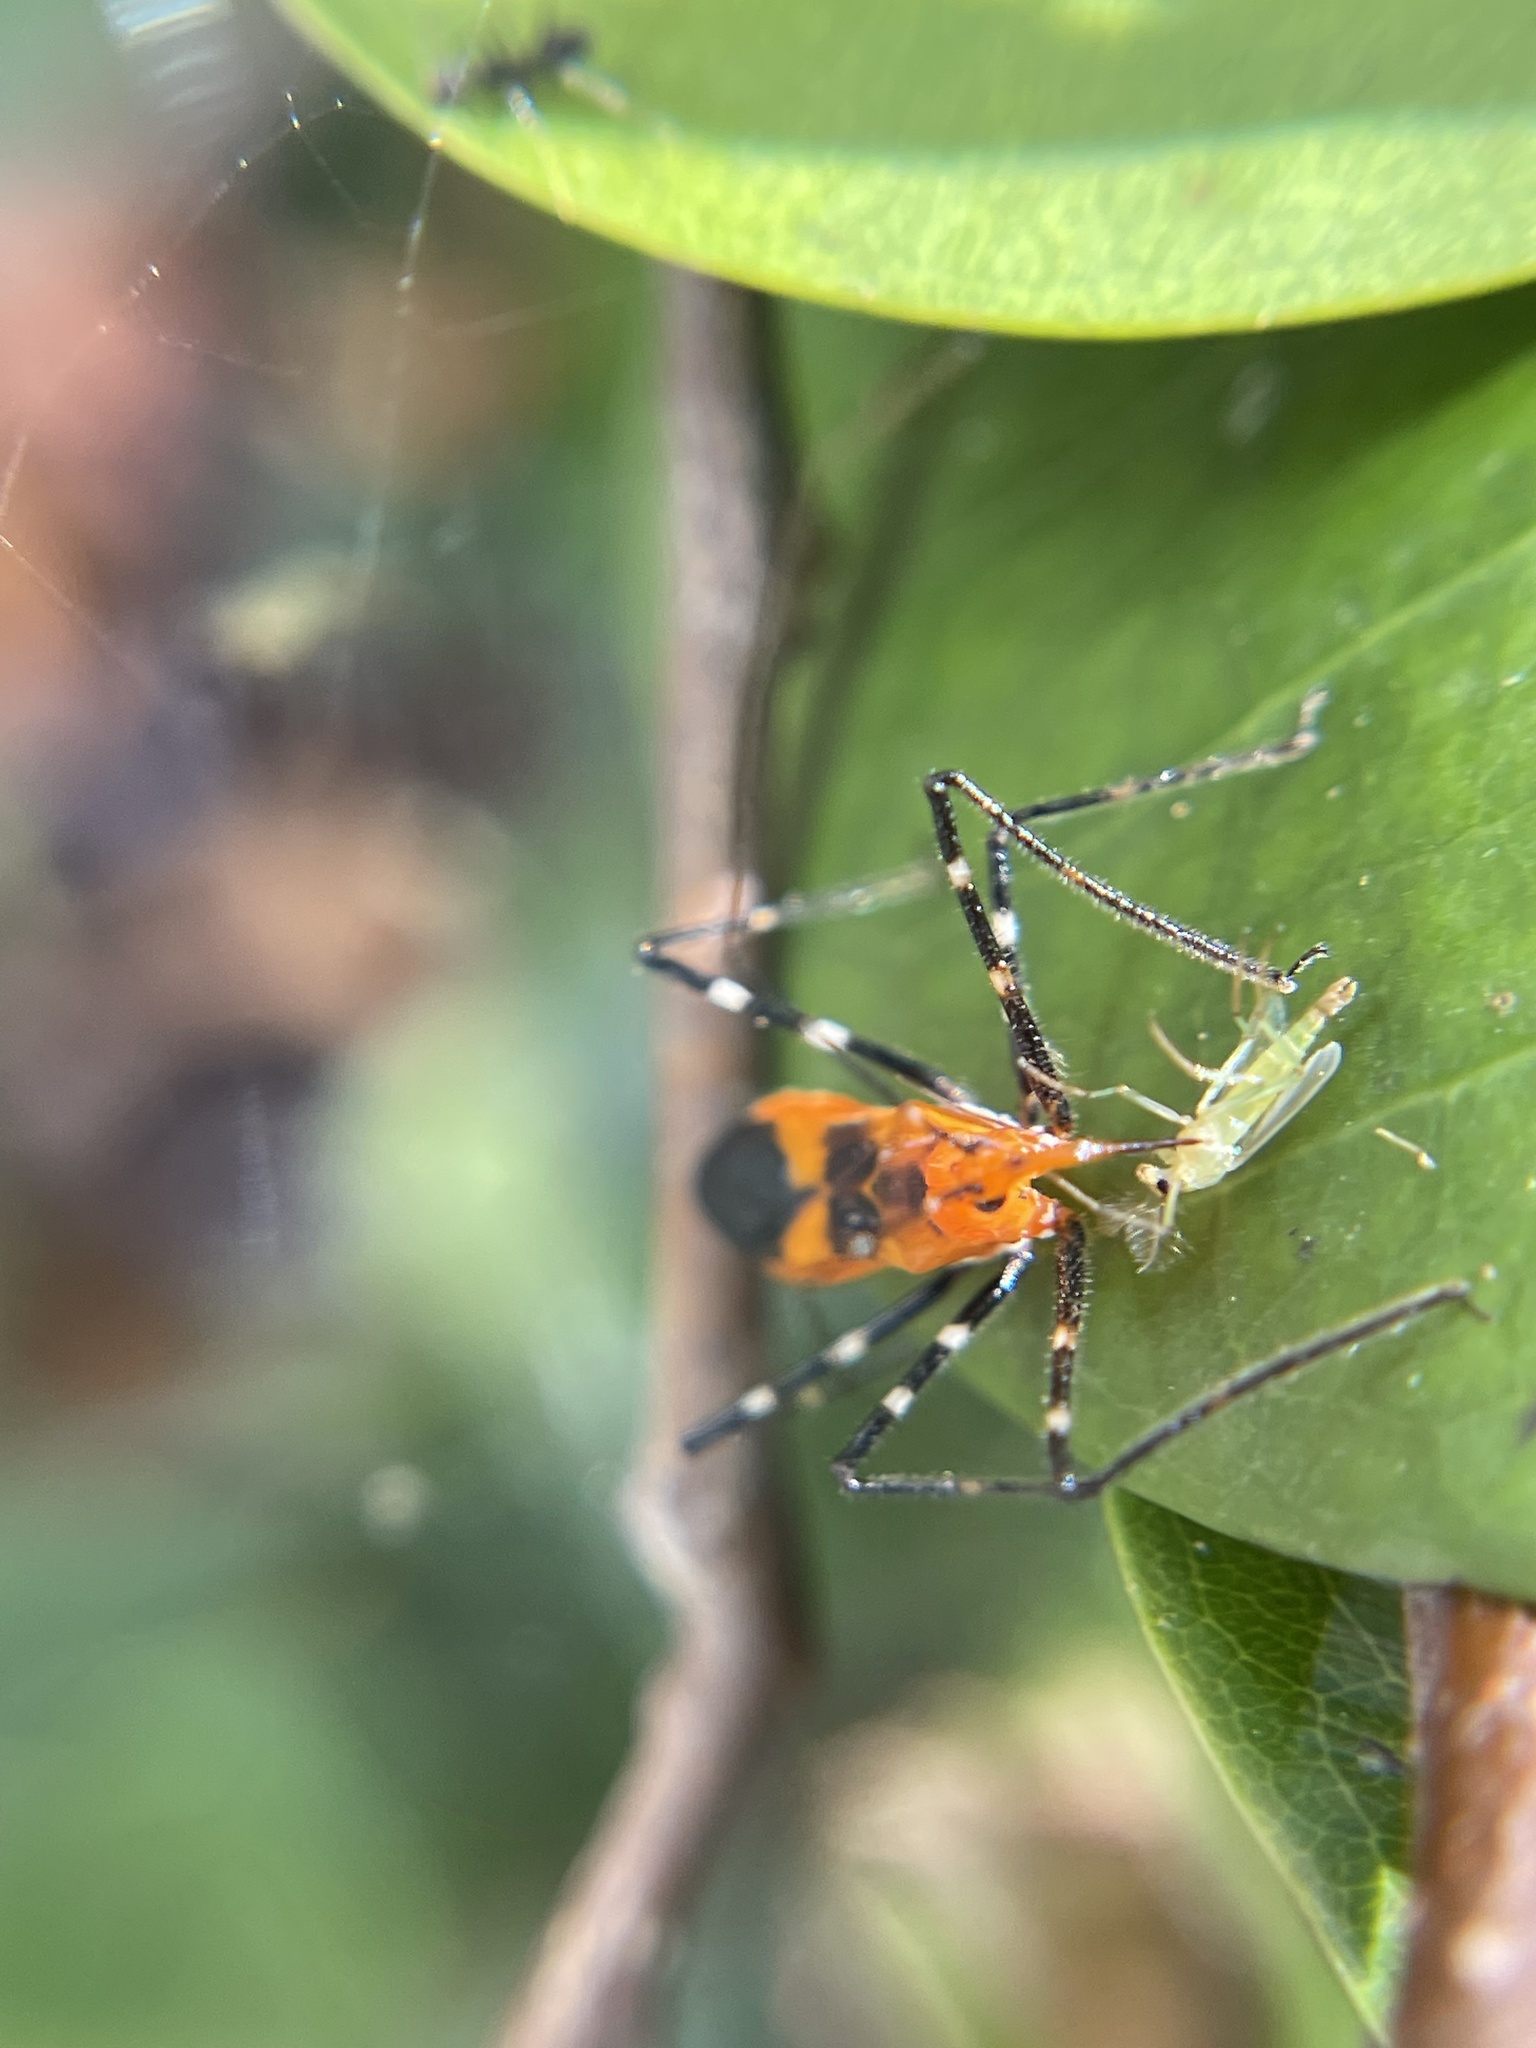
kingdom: Animalia
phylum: Arthropoda
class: Insecta
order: Hemiptera
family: Reduviidae
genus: Zelus
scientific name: Zelus longipes
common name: Milkweed assassin bug
